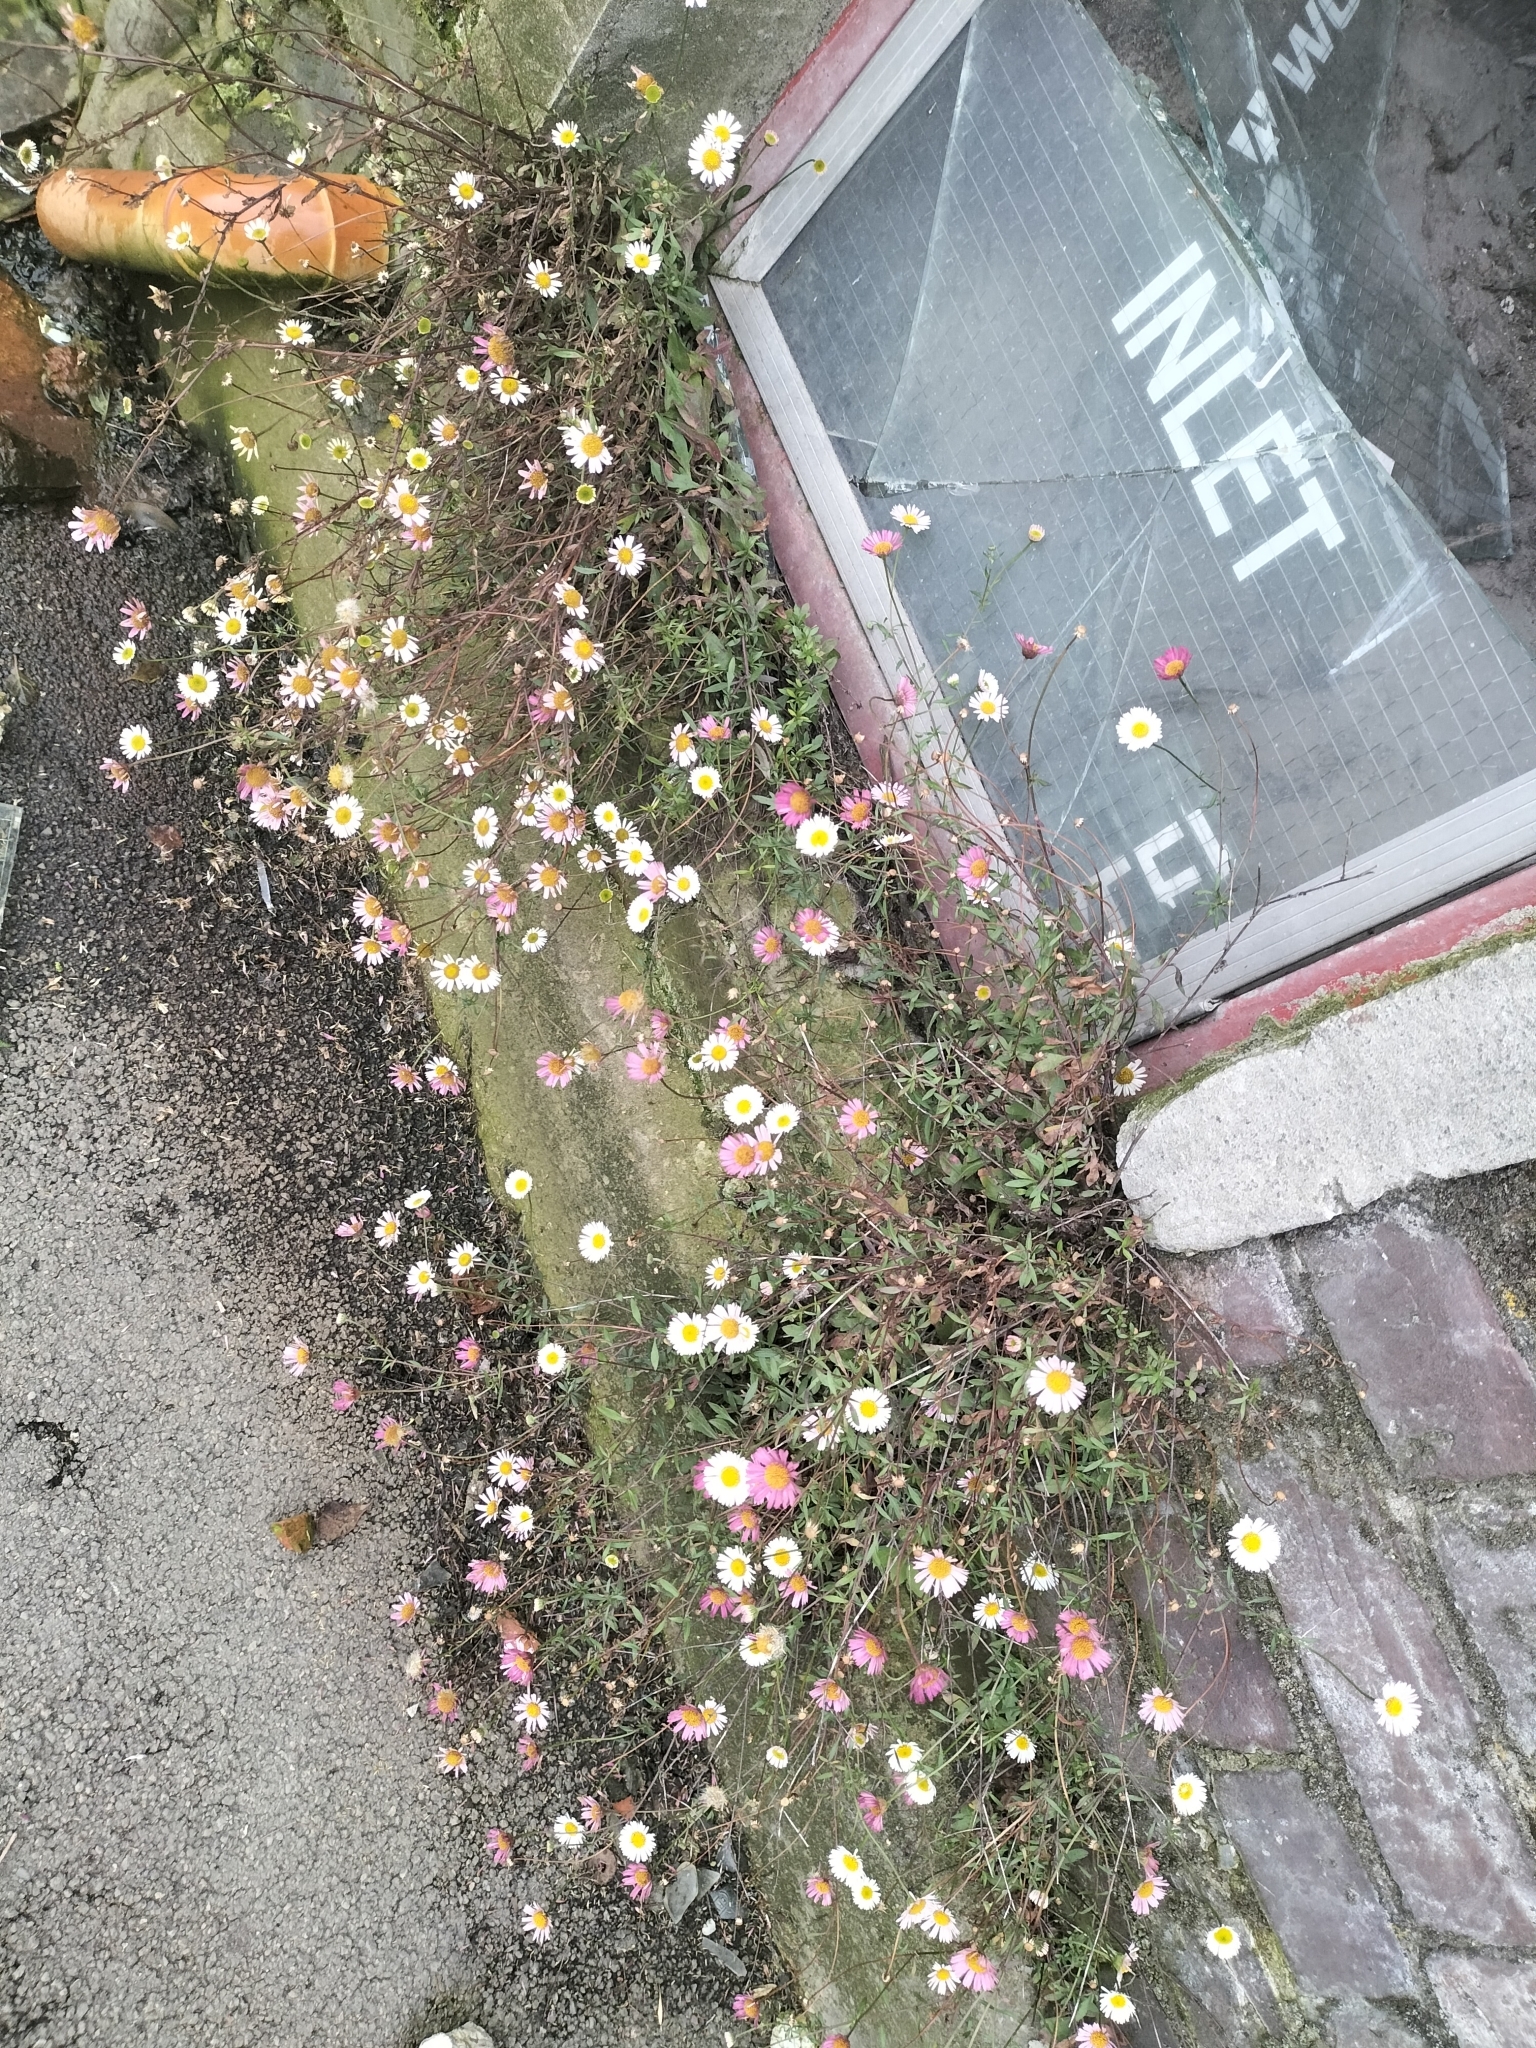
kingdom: Plantae
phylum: Tracheophyta
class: Magnoliopsida
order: Asterales
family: Asteraceae
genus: Erigeron
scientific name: Erigeron karvinskianus
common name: Mexican fleabane
